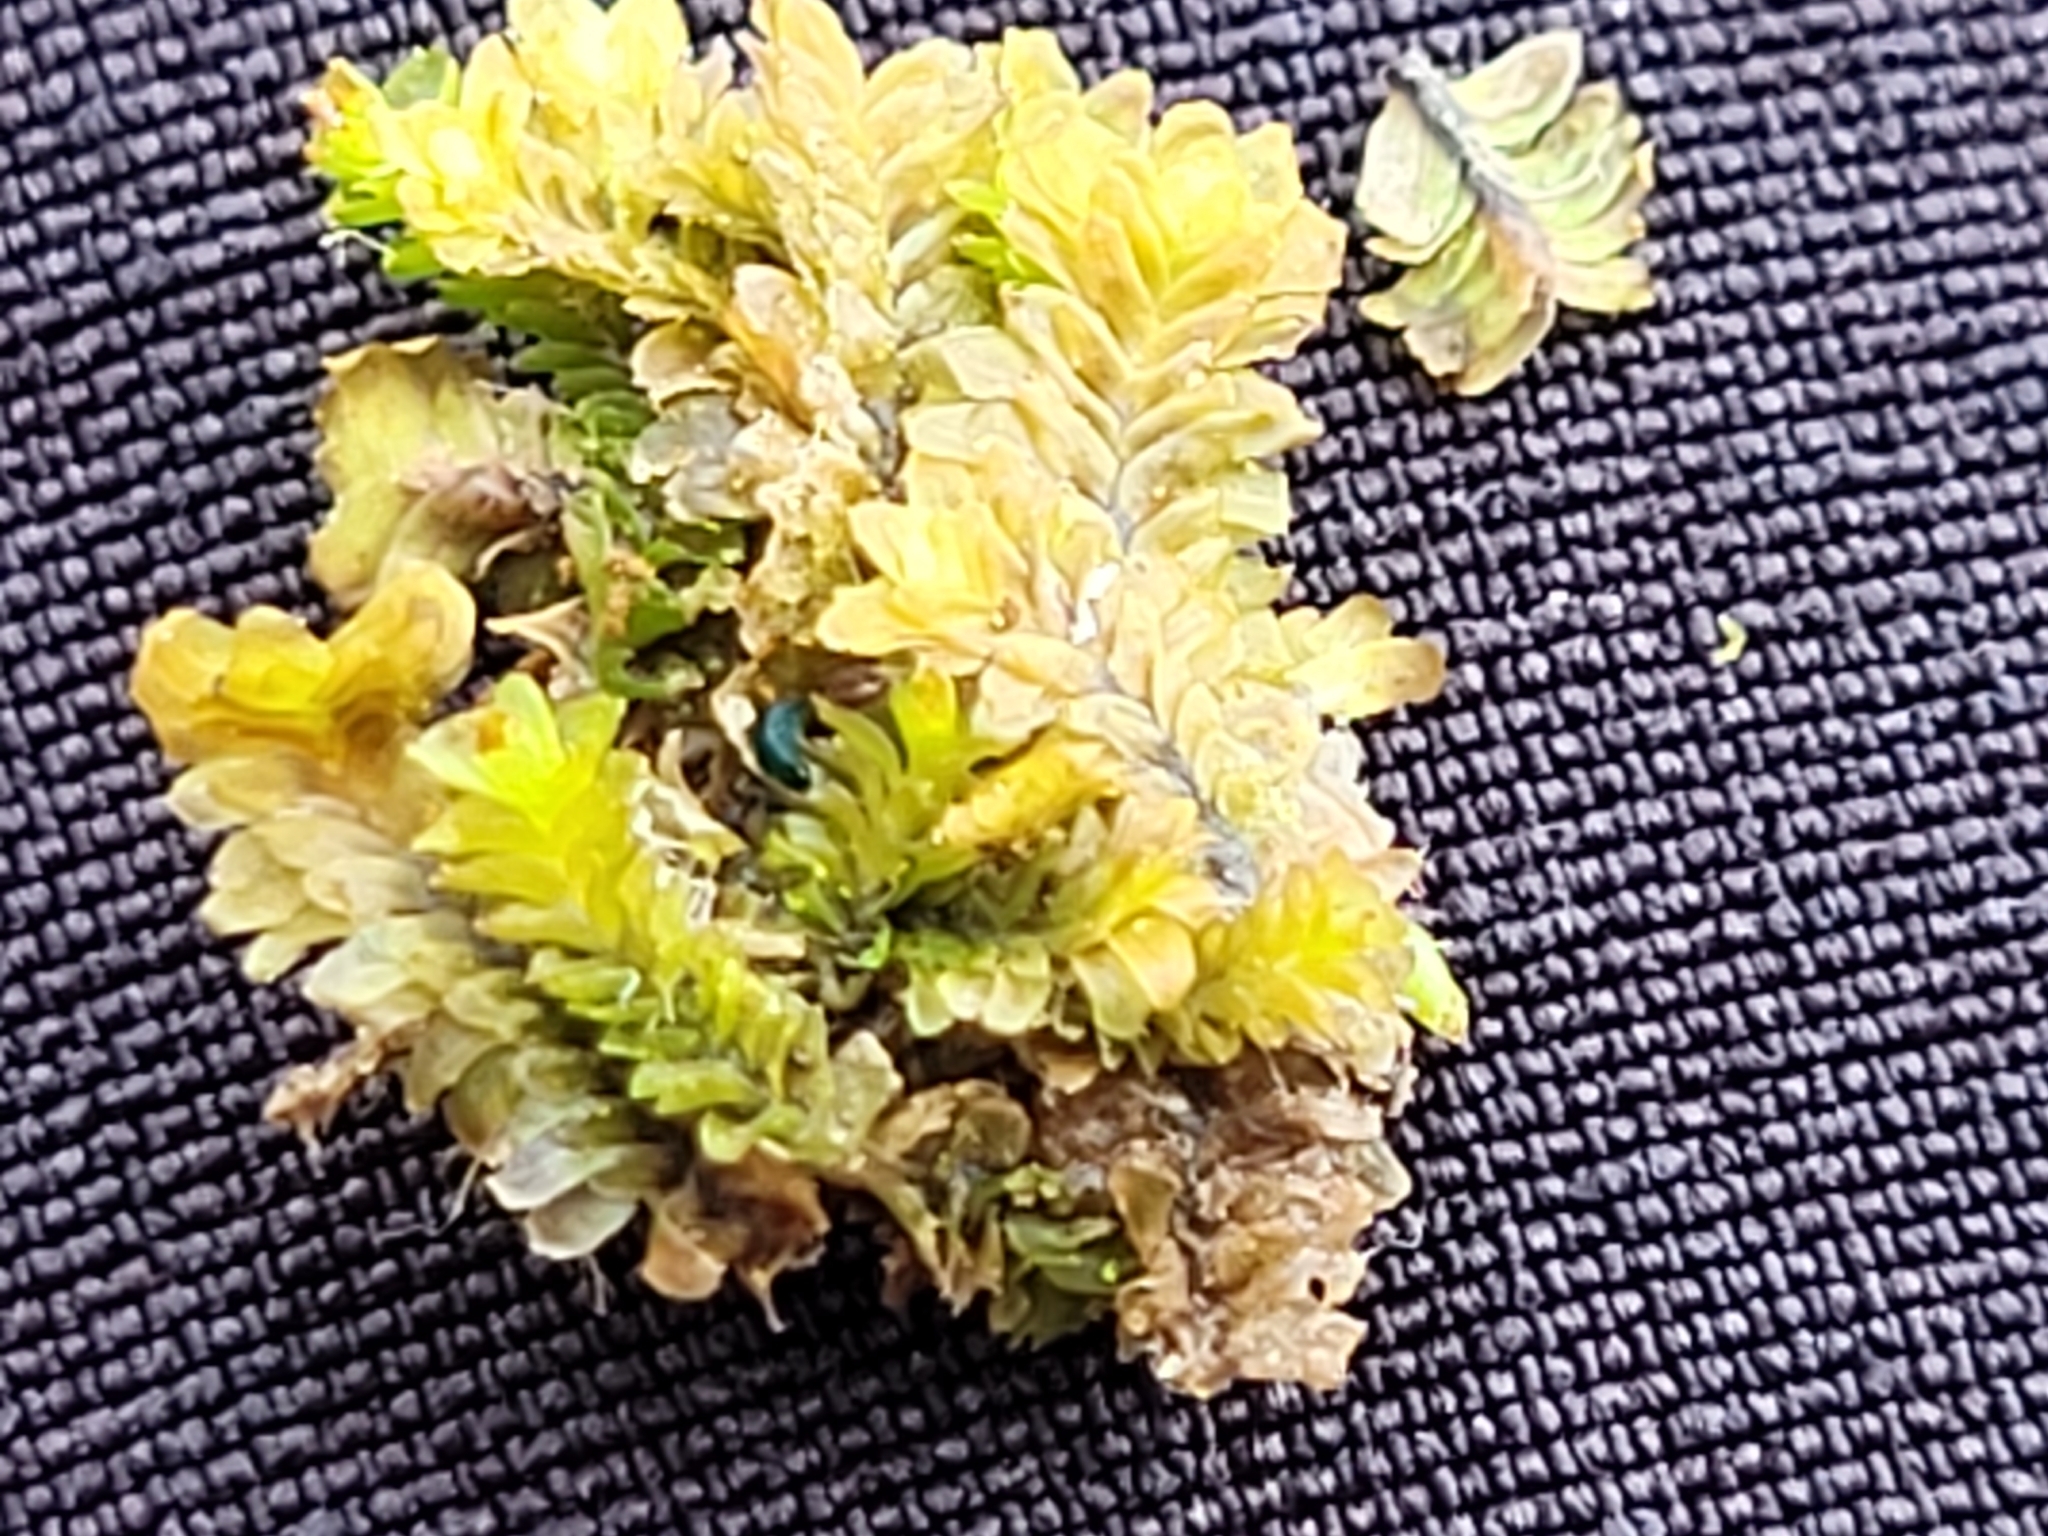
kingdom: Plantae
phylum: Marchantiophyta
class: Jungermanniopsida
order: Jungermanniales
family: Scapaniaceae
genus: Diplophyllum
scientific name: Diplophyllum albicans
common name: White earwort
